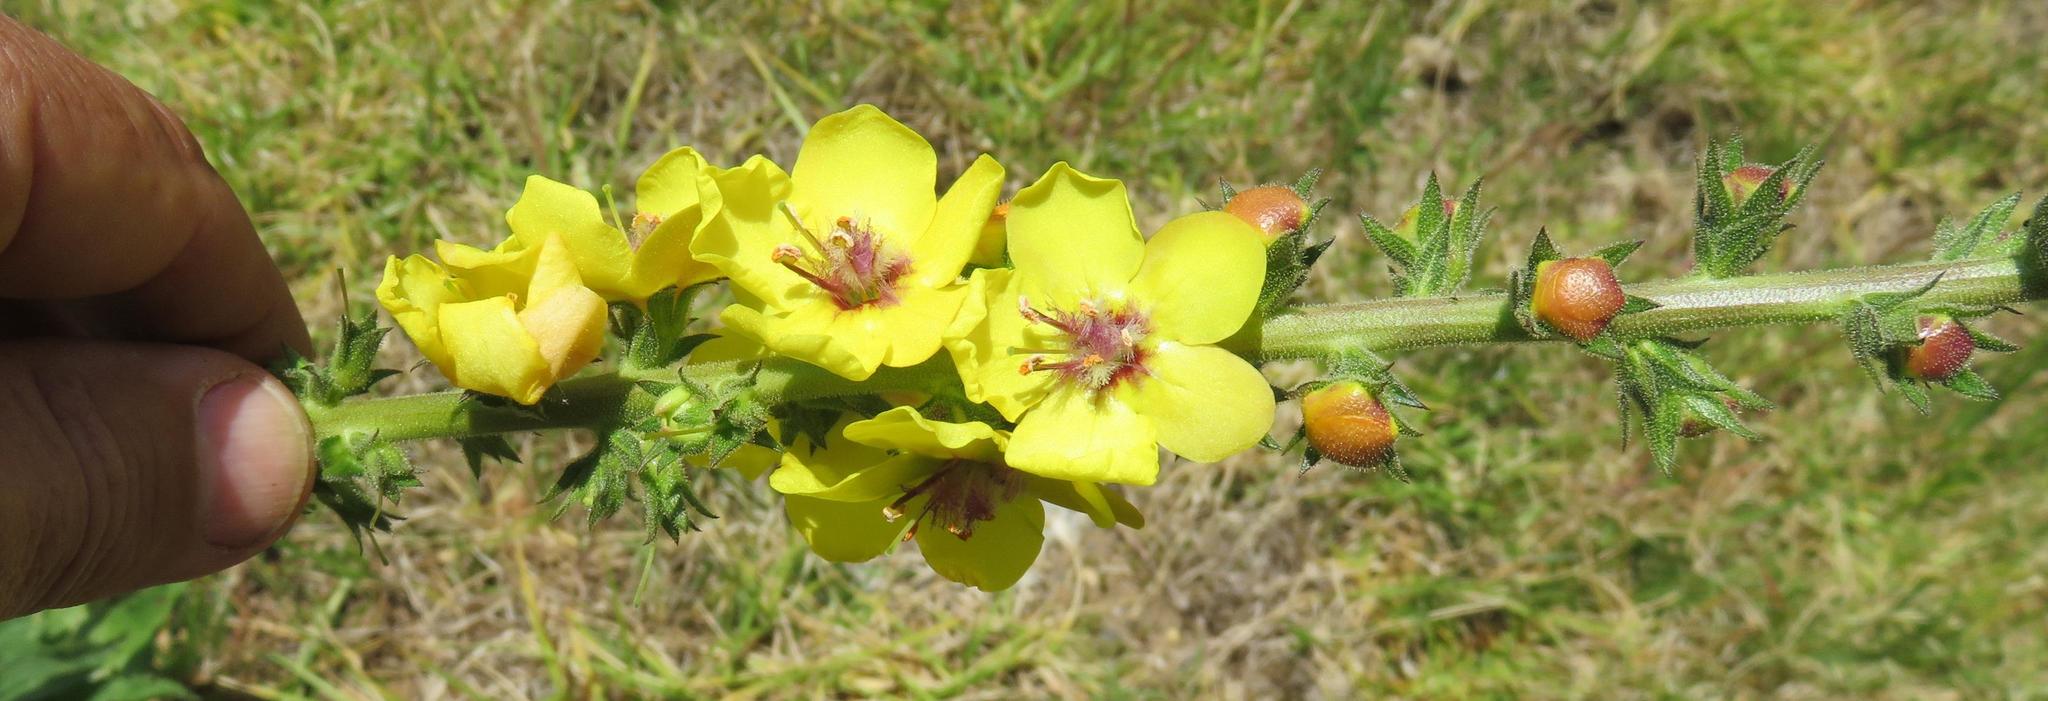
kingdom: Plantae
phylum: Tracheophyta
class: Magnoliopsida
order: Lamiales
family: Scrophulariaceae
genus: Verbascum
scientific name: Verbascum virgatum
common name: Twiggy mullein
